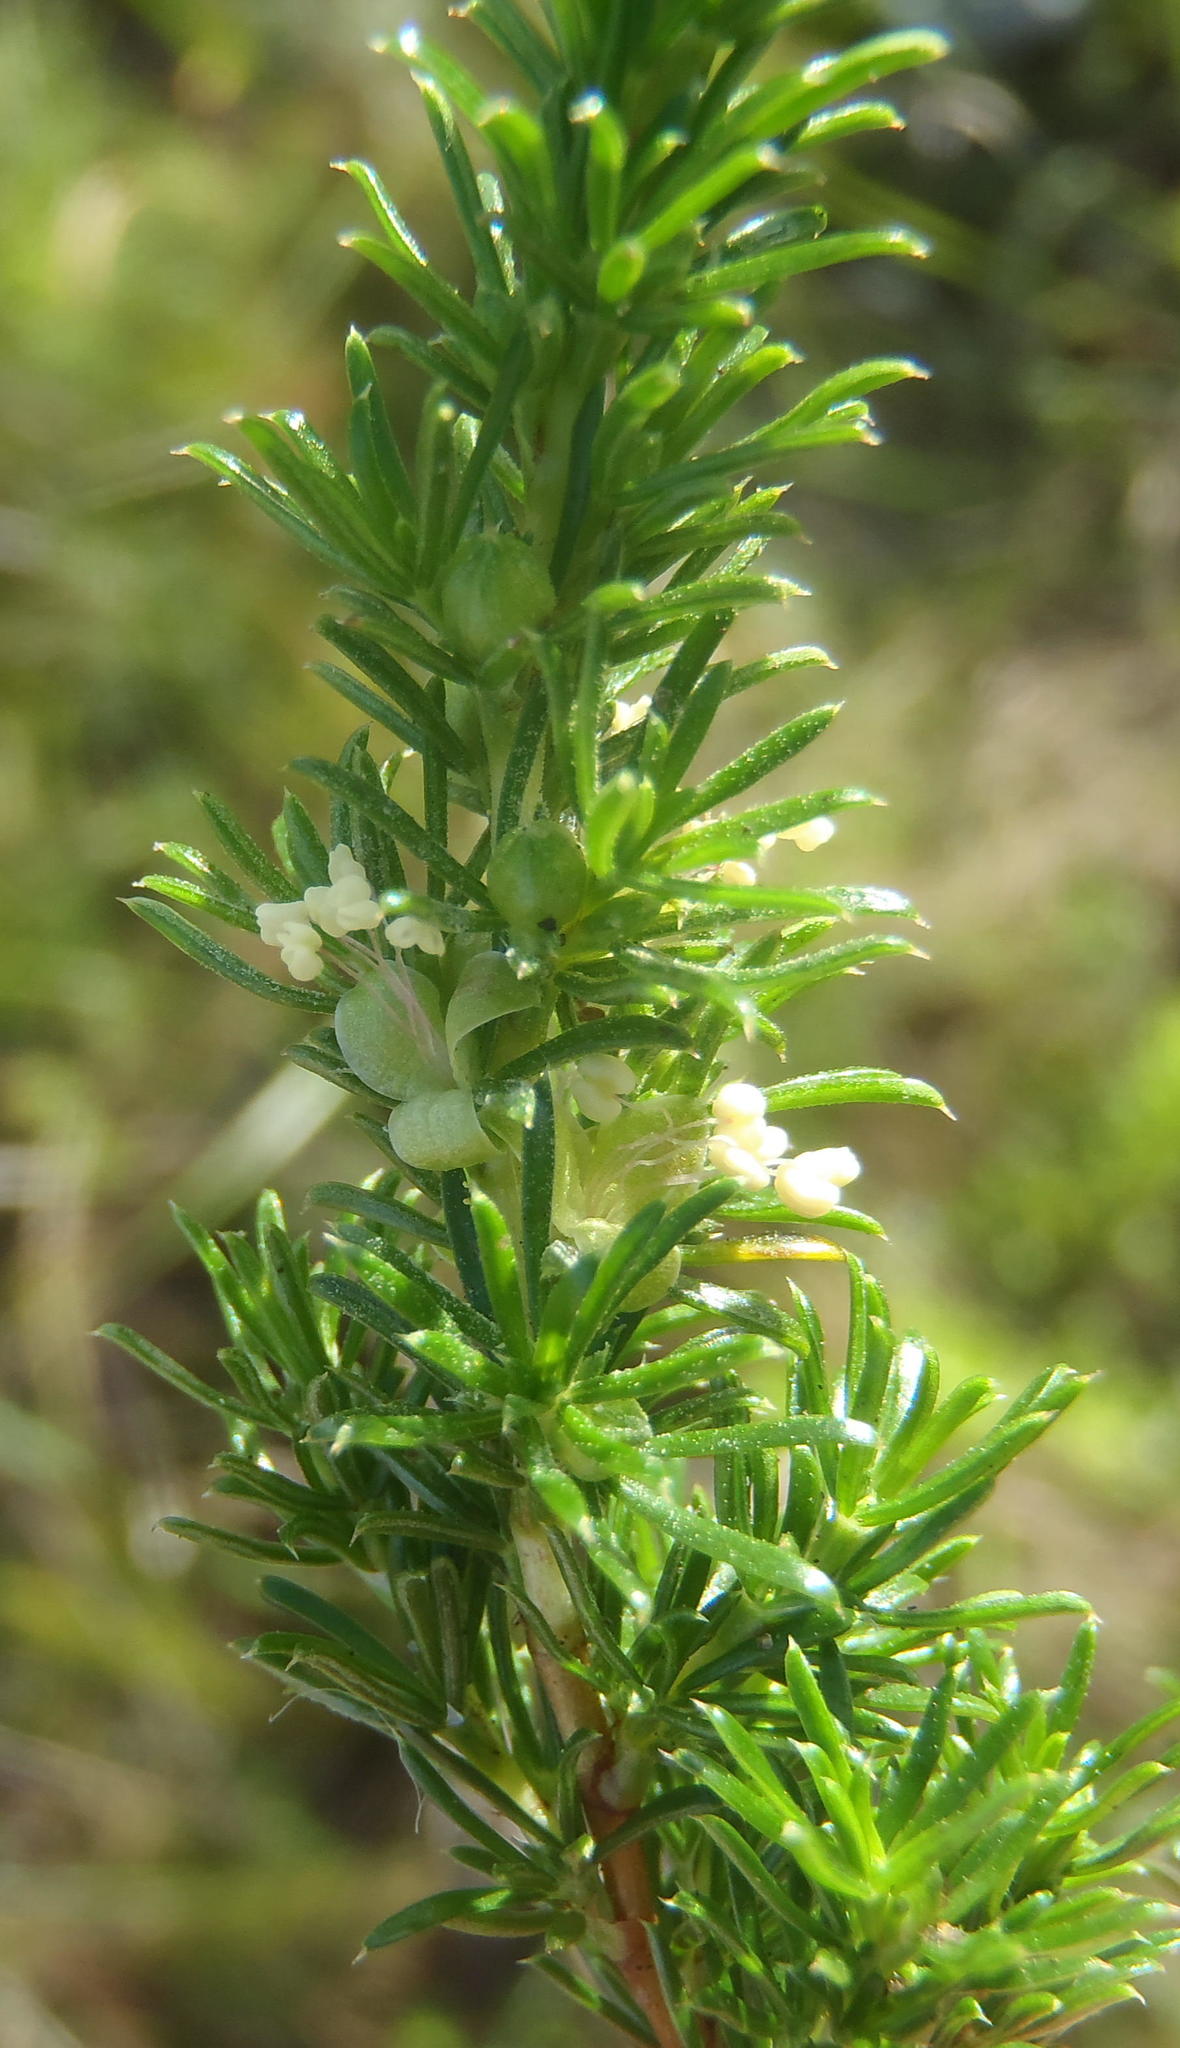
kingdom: Plantae
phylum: Tracheophyta
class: Magnoliopsida
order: Rosales
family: Rosaceae
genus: Cliffortia
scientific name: Cliffortia filifolia
